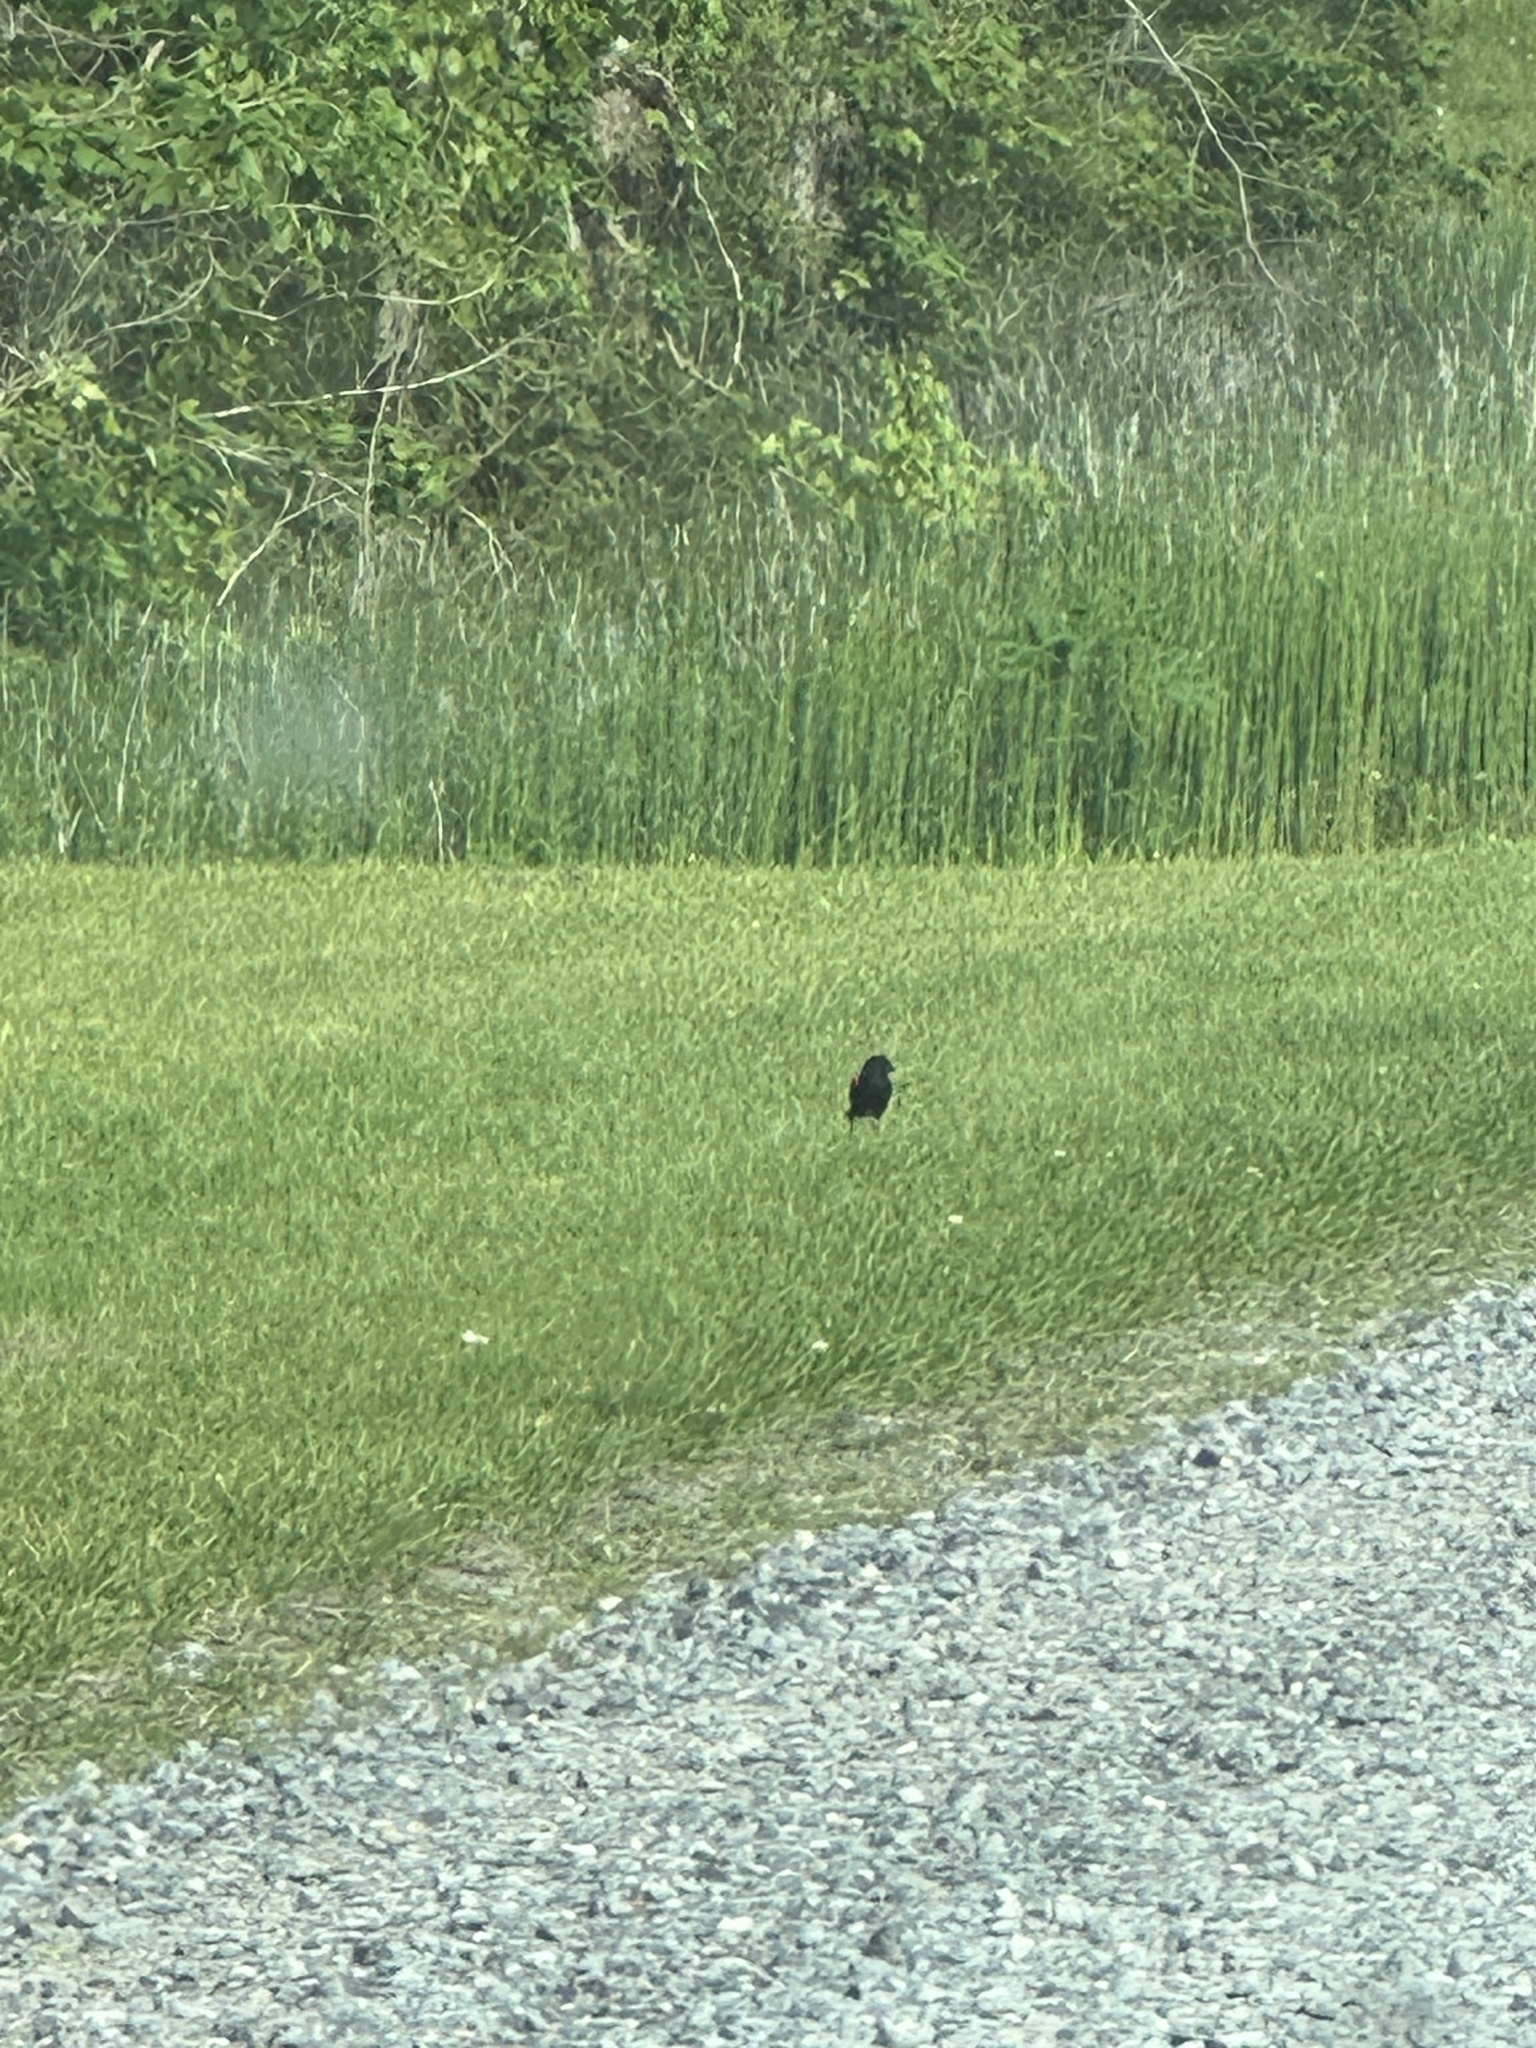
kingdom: Animalia
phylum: Chordata
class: Aves
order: Passeriformes
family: Icteridae
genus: Agelaius
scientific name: Agelaius phoeniceus
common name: Red-winged blackbird
